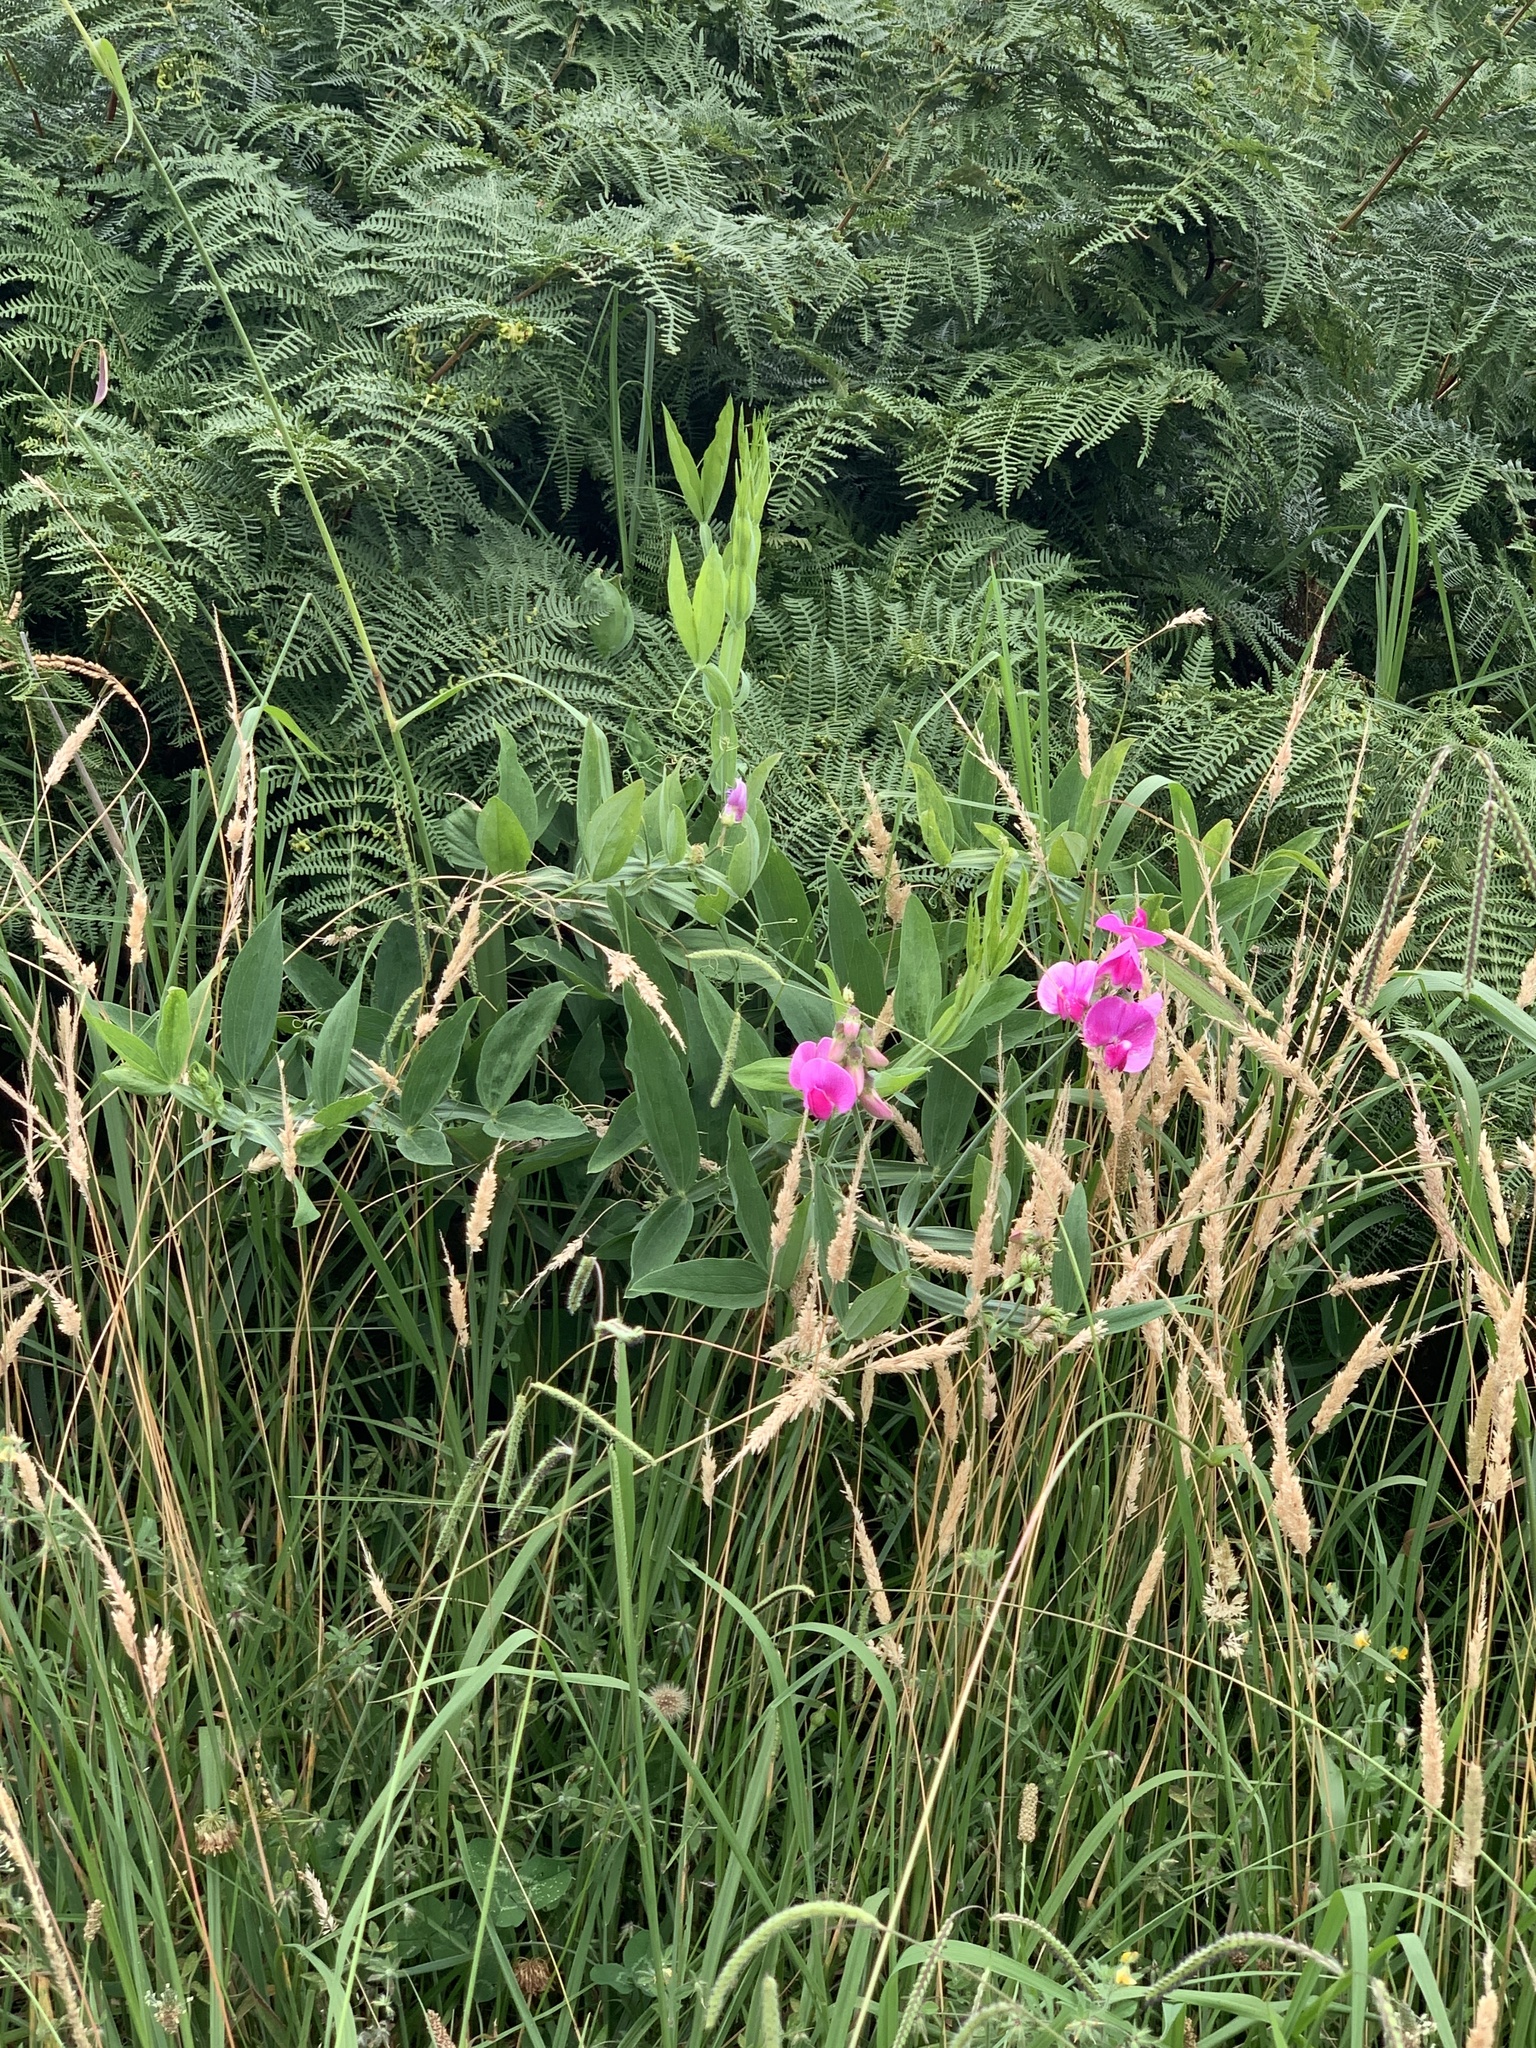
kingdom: Plantae
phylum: Tracheophyta
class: Magnoliopsida
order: Fabales
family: Fabaceae
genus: Lathyrus
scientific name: Lathyrus latifolius
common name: Perennial pea
